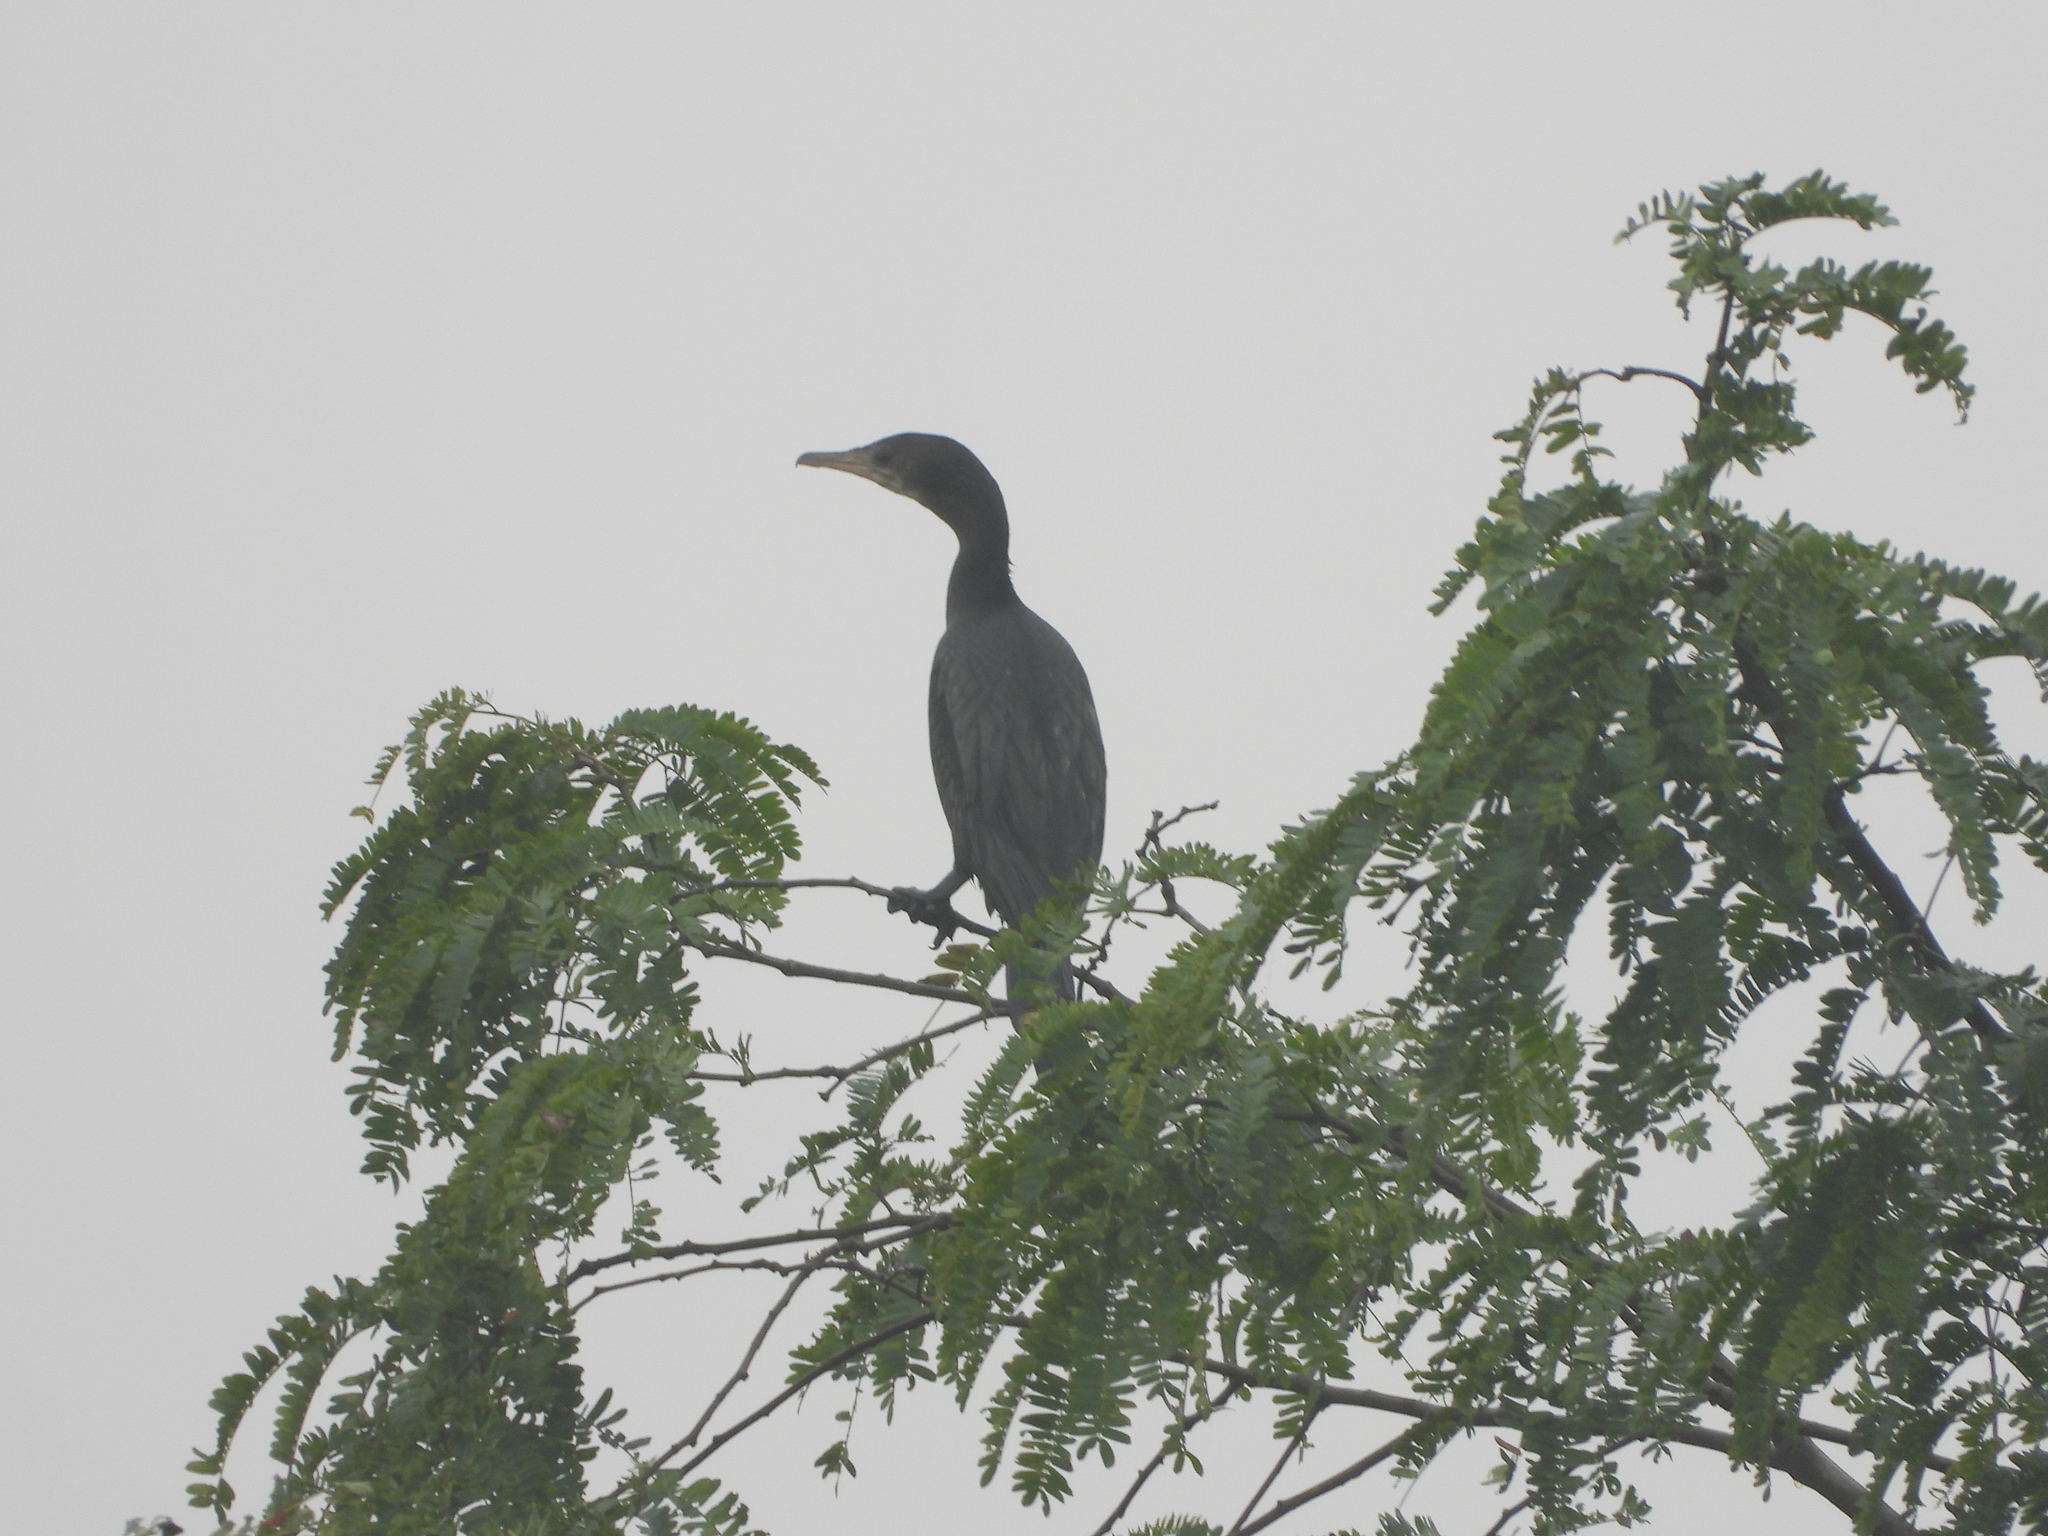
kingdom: Animalia
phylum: Chordata
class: Aves
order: Suliformes
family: Phalacrocoracidae
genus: Microcarbo
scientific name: Microcarbo niger
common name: Little cormorant
